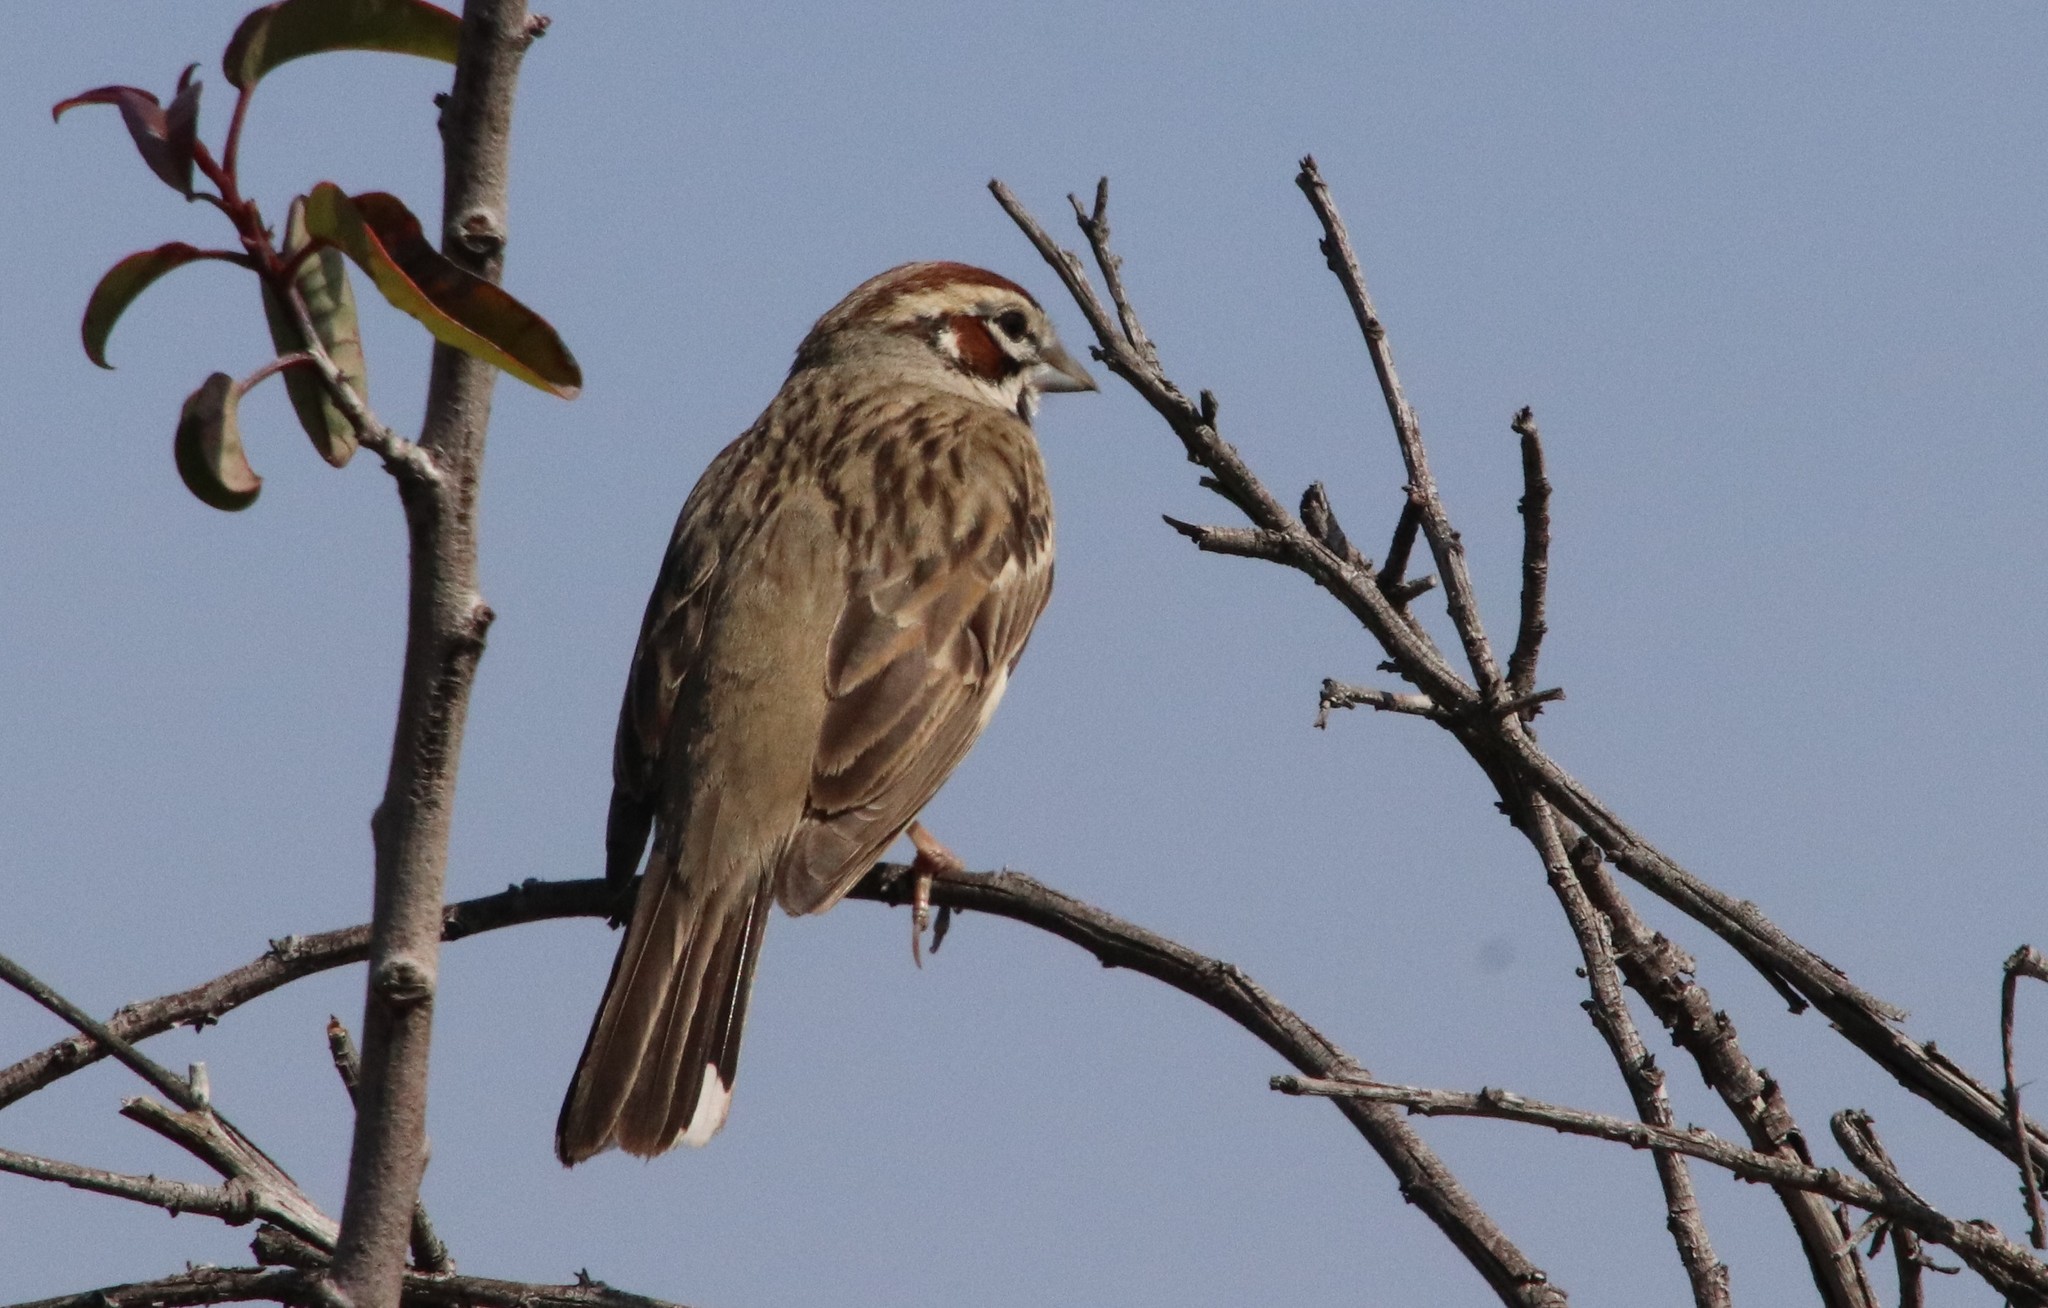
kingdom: Animalia
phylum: Chordata
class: Aves
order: Passeriformes
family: Passerellidae
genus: Chondestes
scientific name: Chondestes grammacus
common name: Lark sparrow
